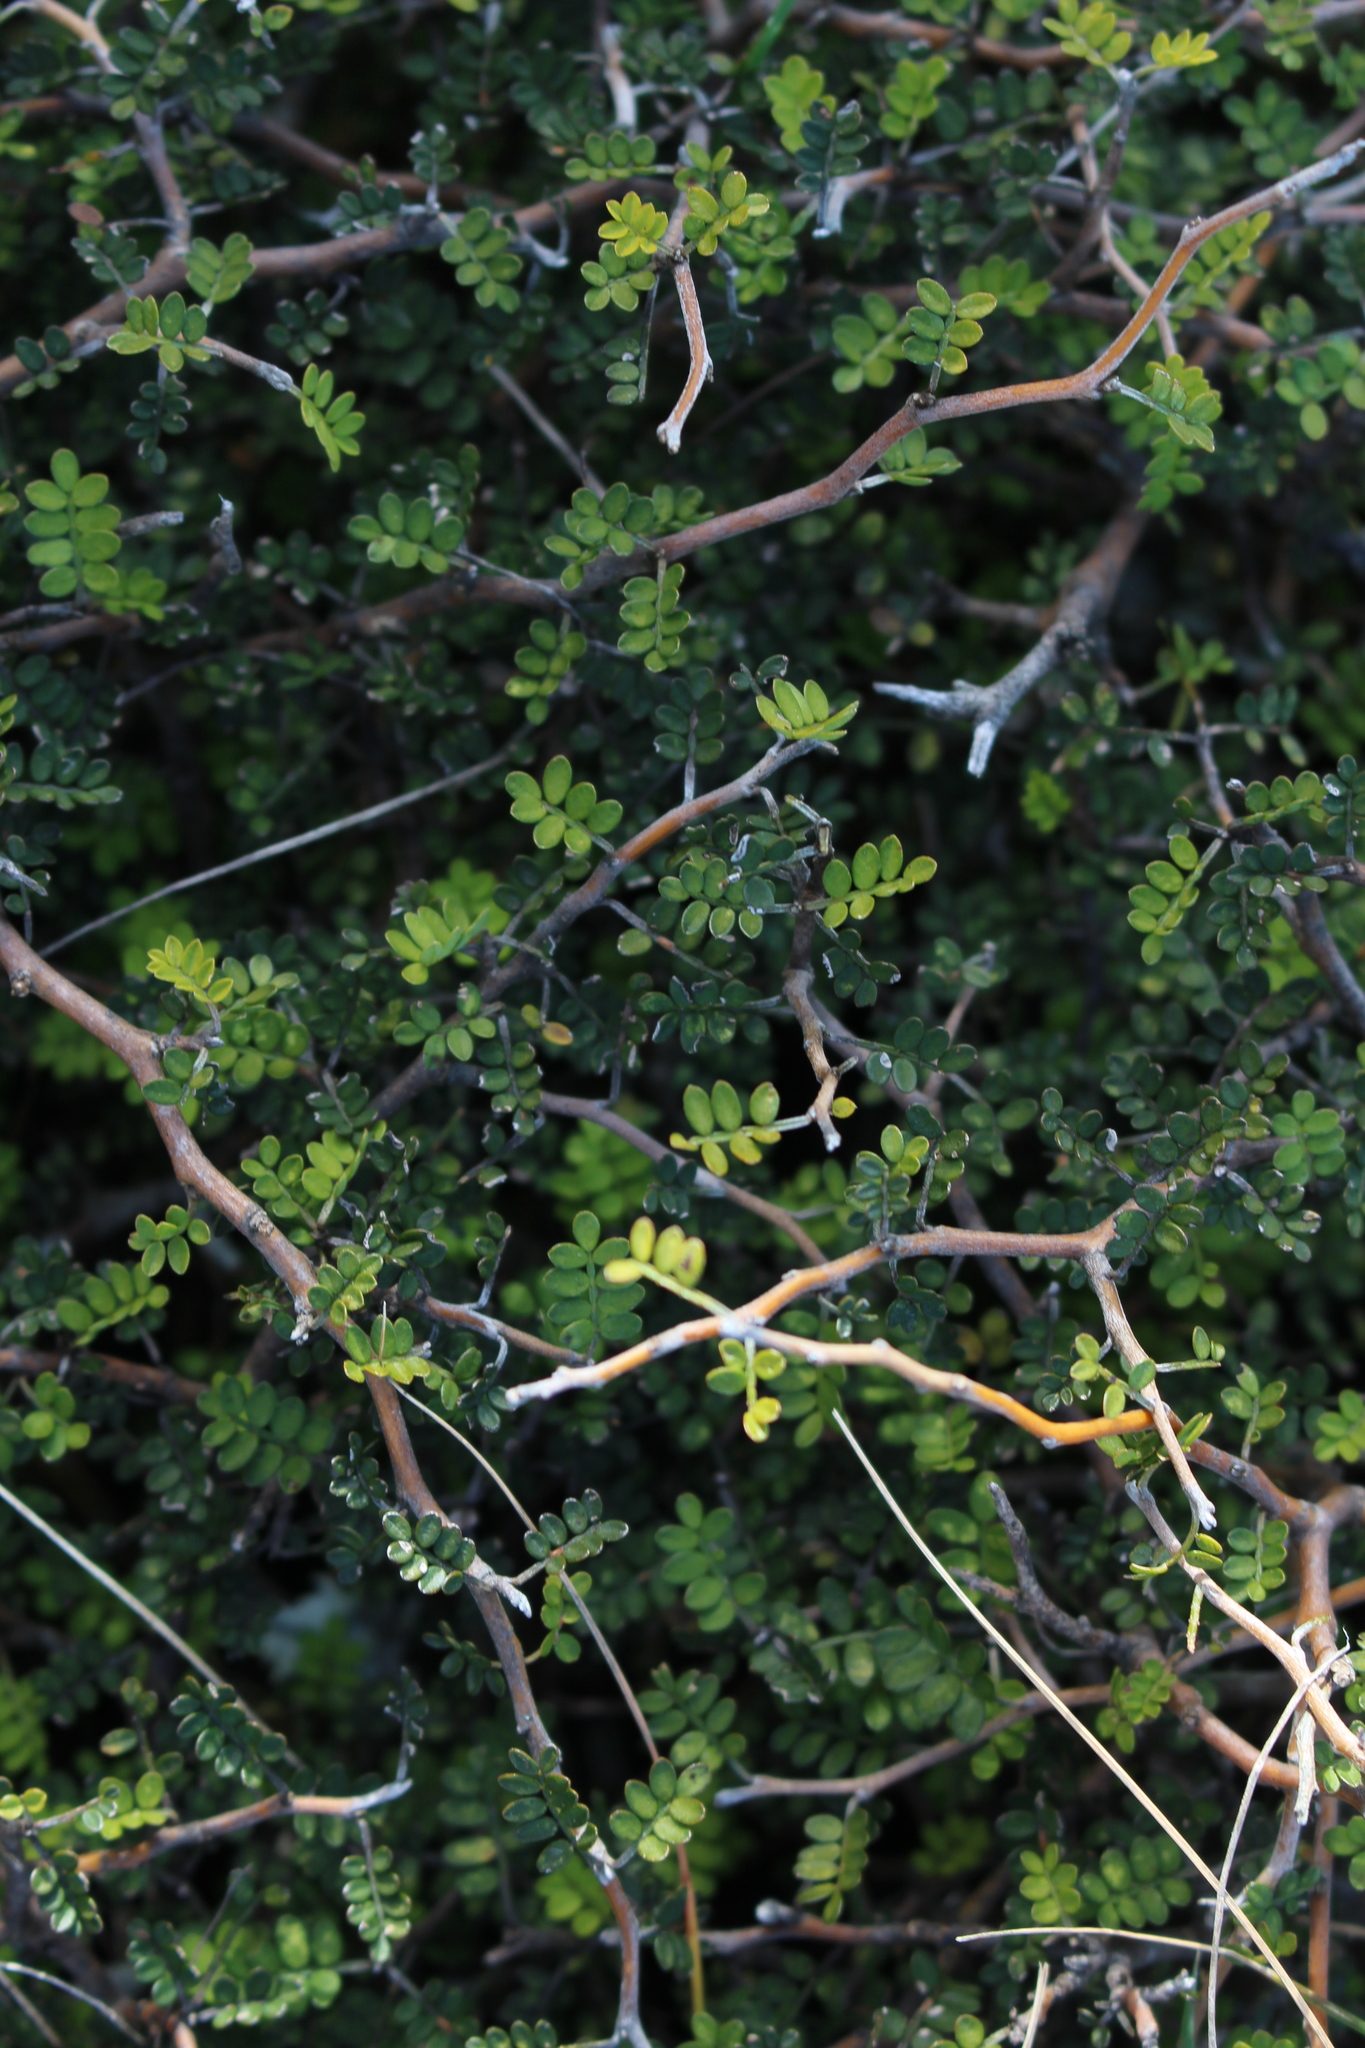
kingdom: Plantae
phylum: Tracheophyta
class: Magnoliopsida
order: Fabales
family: Fabaceae
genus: Sophora
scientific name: Sophora prostrata
